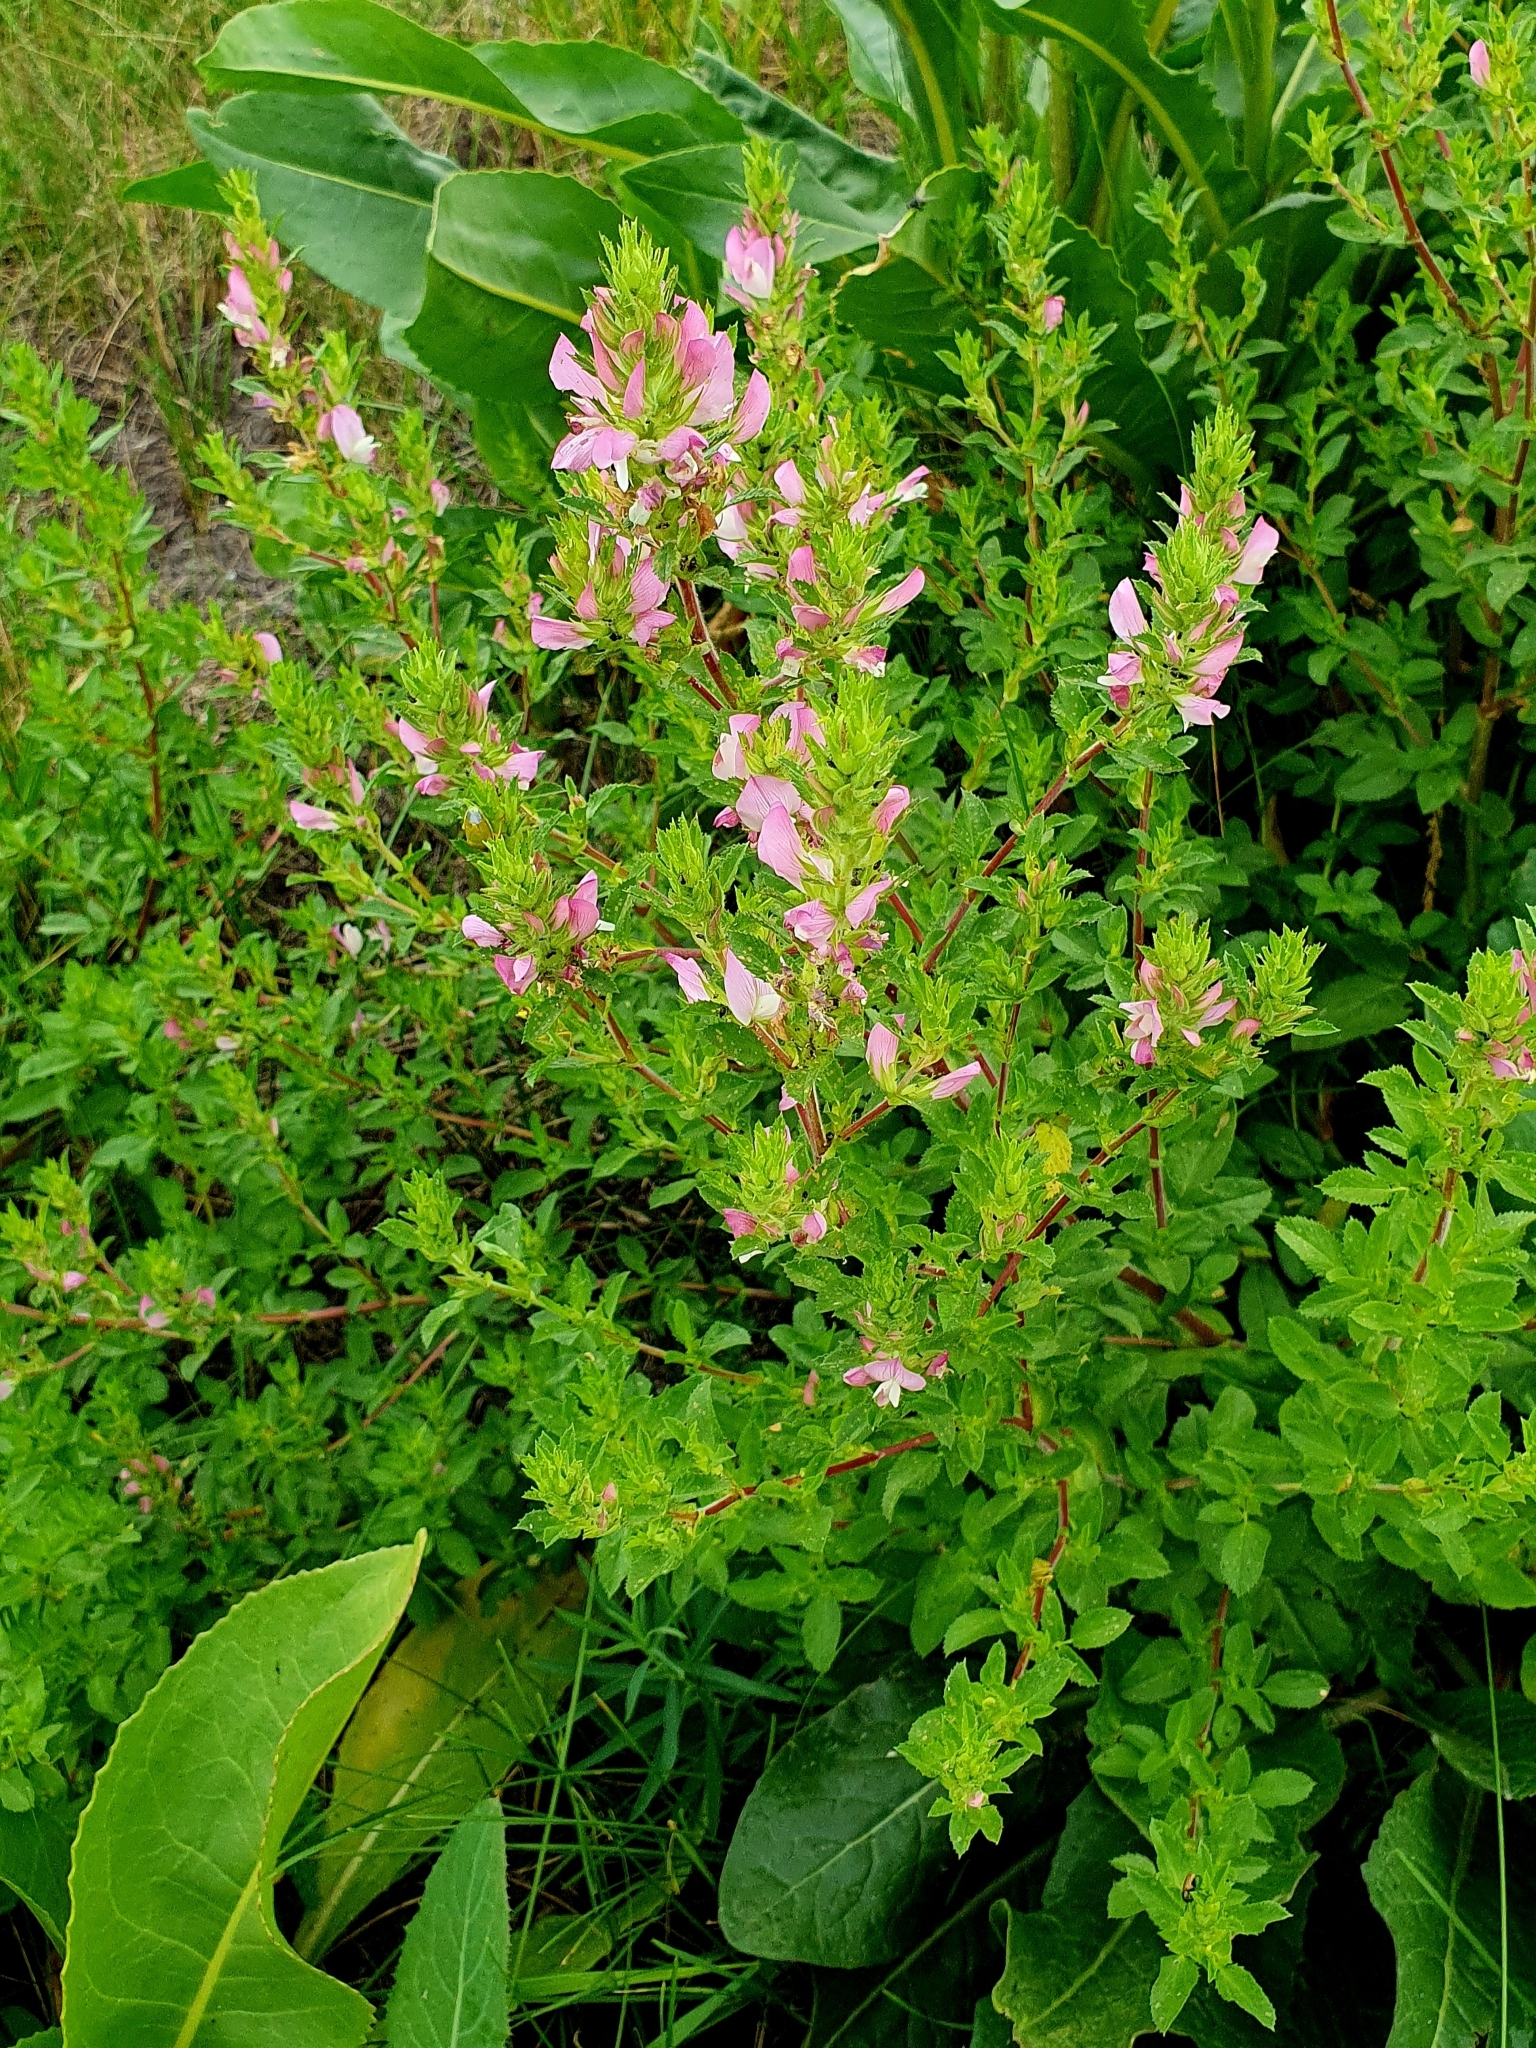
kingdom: Plantae
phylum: Tracheophyta
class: Magnoliopsida
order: Fabales
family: Fabaceae
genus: Ononis
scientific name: Ononis arvensis
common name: Field restharrow
